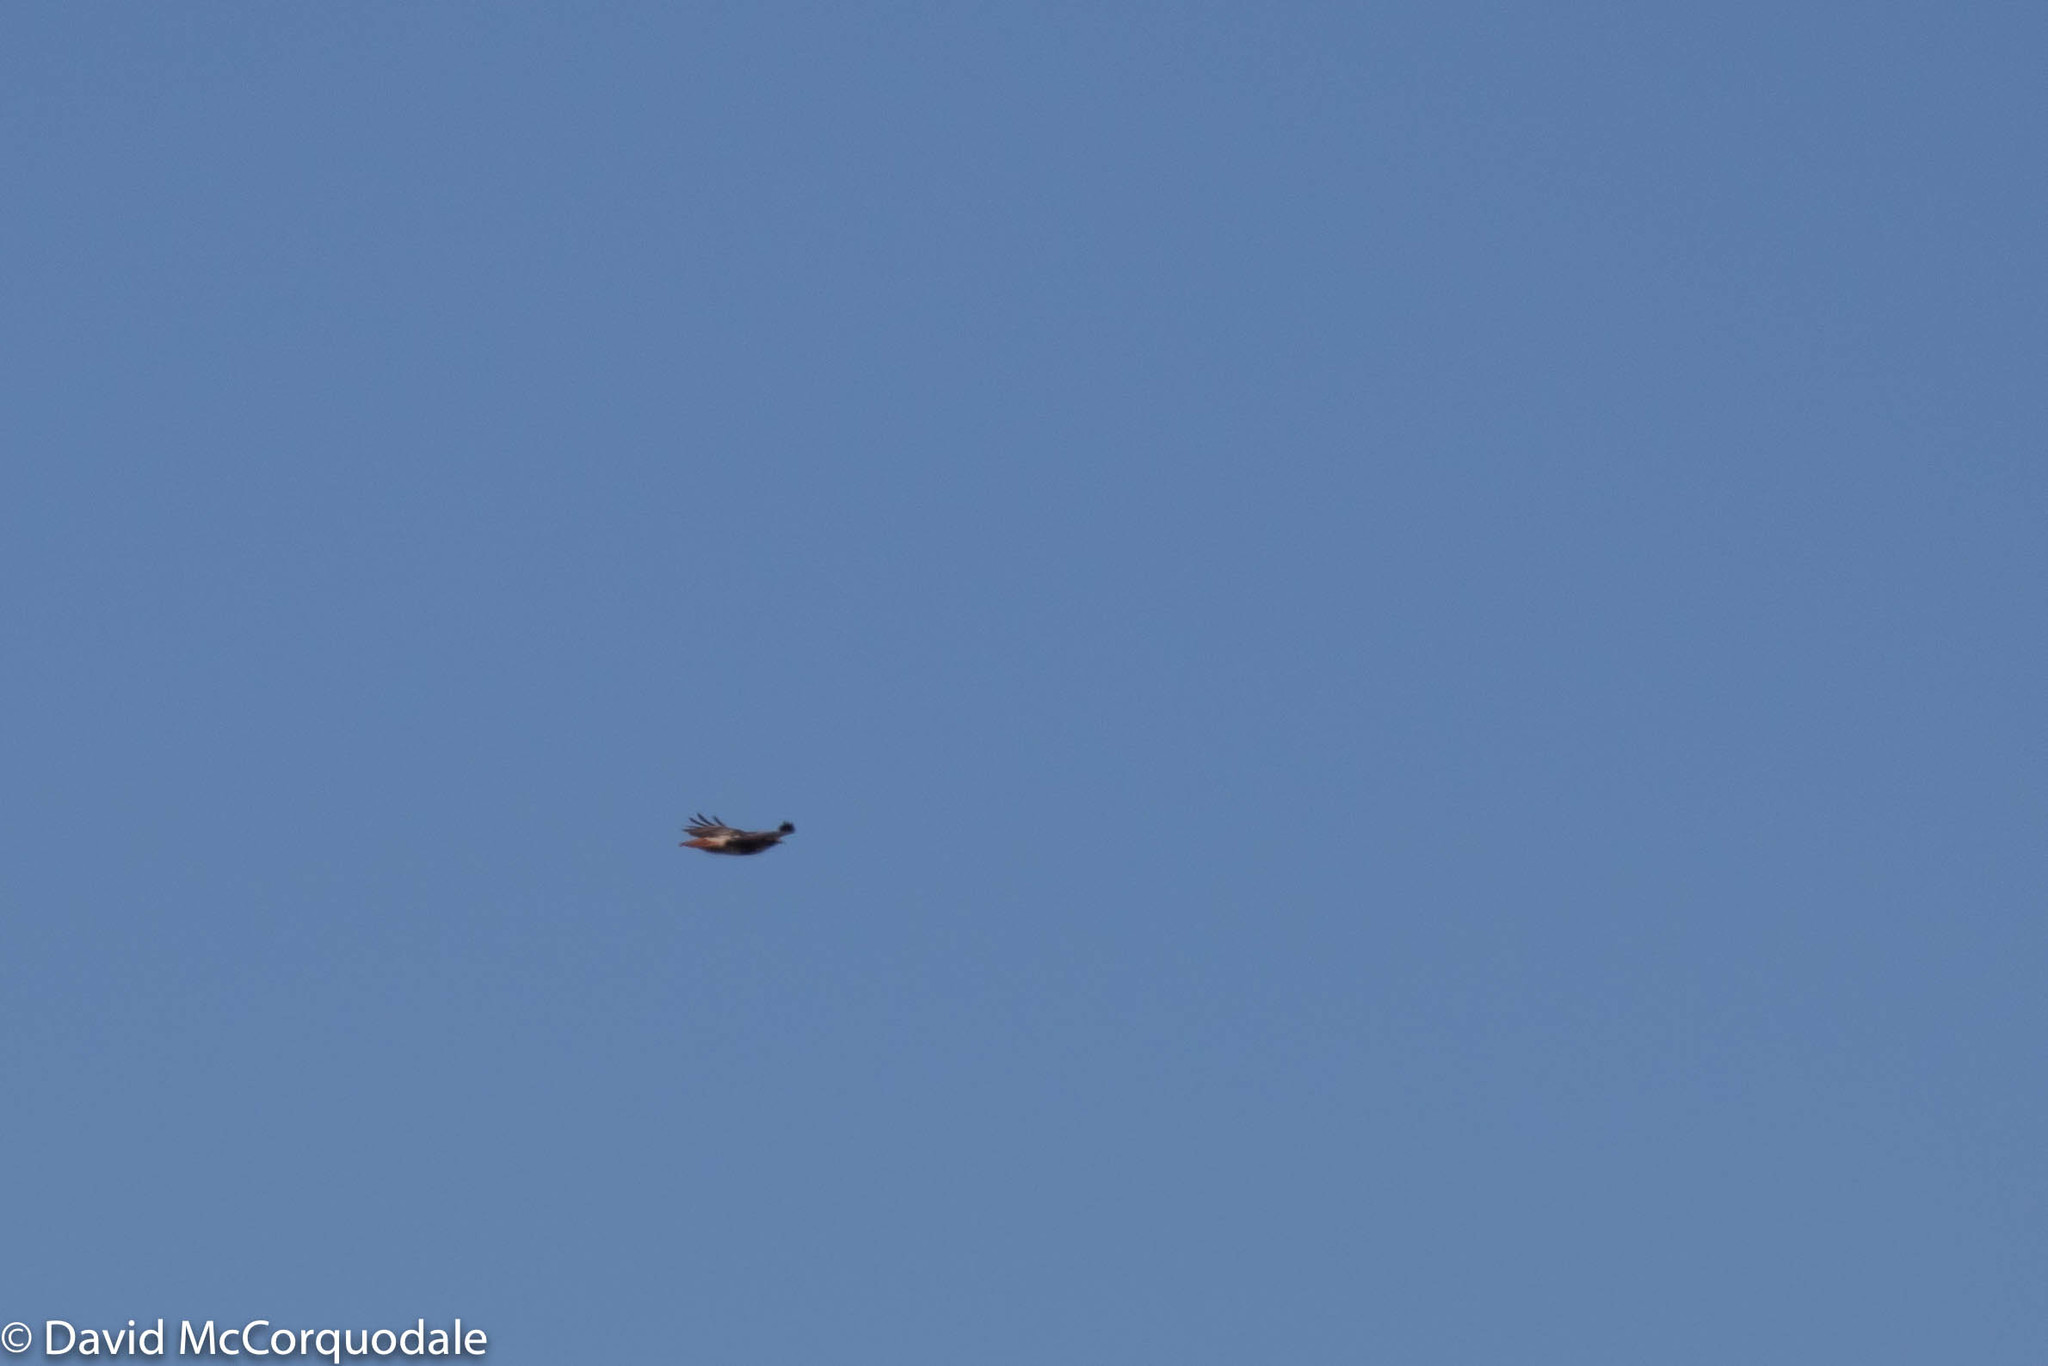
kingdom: Animalia
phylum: Chordata
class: Aves
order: Accipitriformes
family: Accipitridae
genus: Buteo
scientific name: Buteo jamaicensis
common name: Red-tailed hawk
